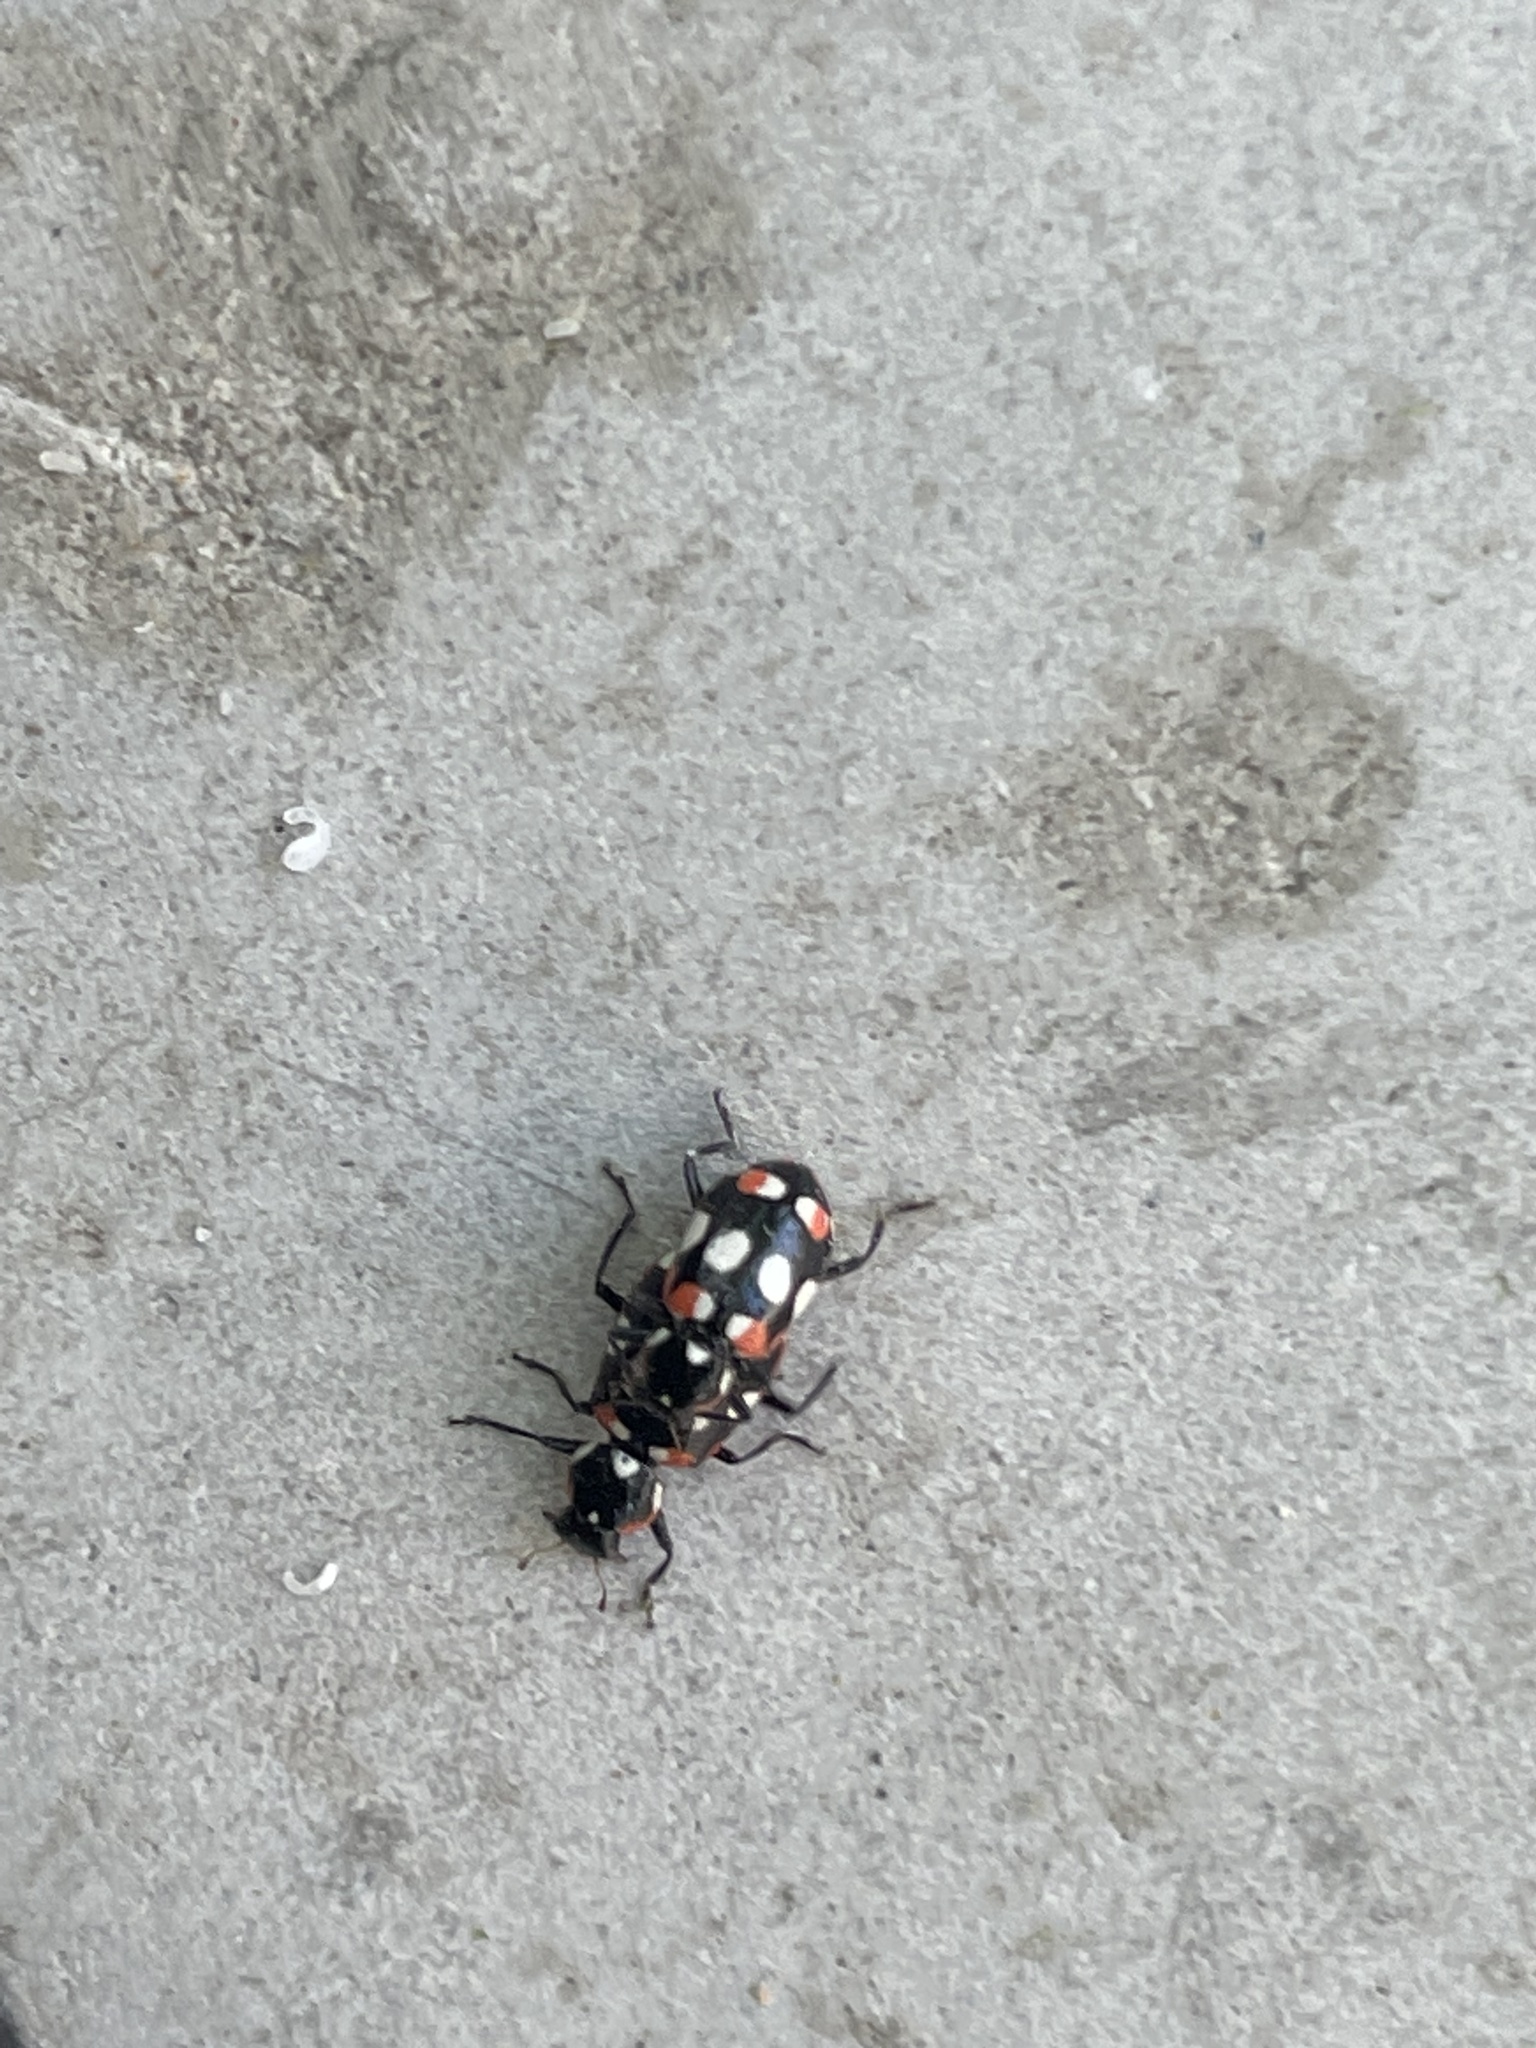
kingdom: Animalia
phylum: Arthropoda
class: Insecta
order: Coleoptera
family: Coccinellidae
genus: Eriopis
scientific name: Eriopis connexa
